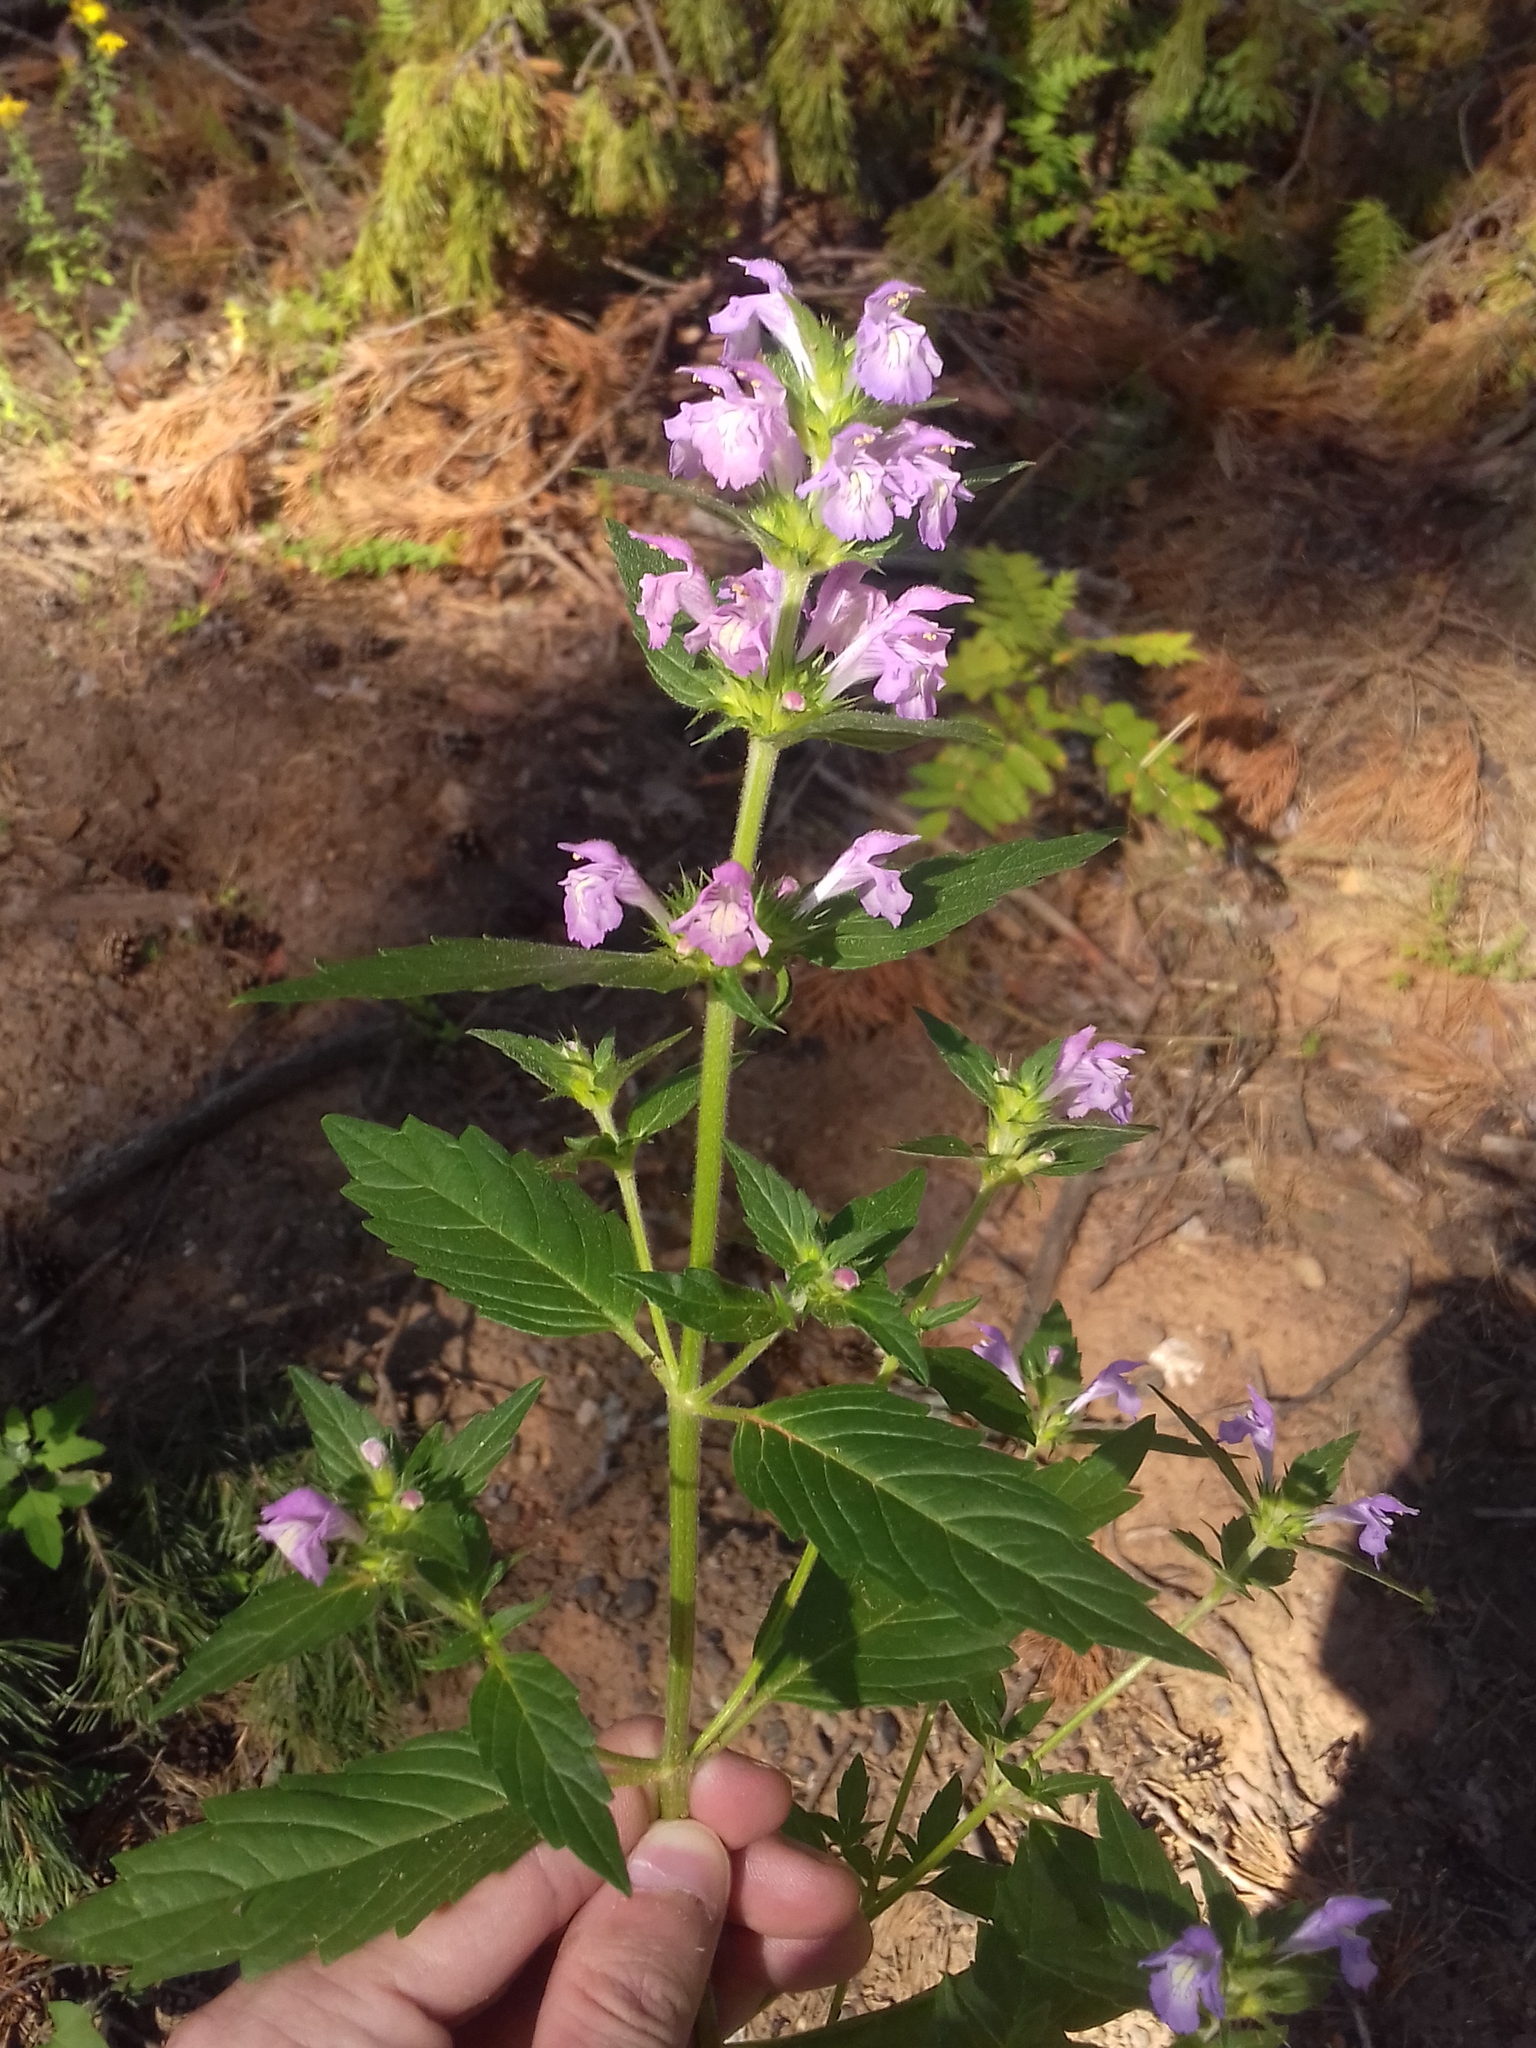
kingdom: Plantae
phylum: Tracheophyta
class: Magnoliopsida
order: Lamiales
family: Lamiaceae
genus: Galeopsis
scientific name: Galeopsis ladanum
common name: Broad-leaved hemp-nettle
